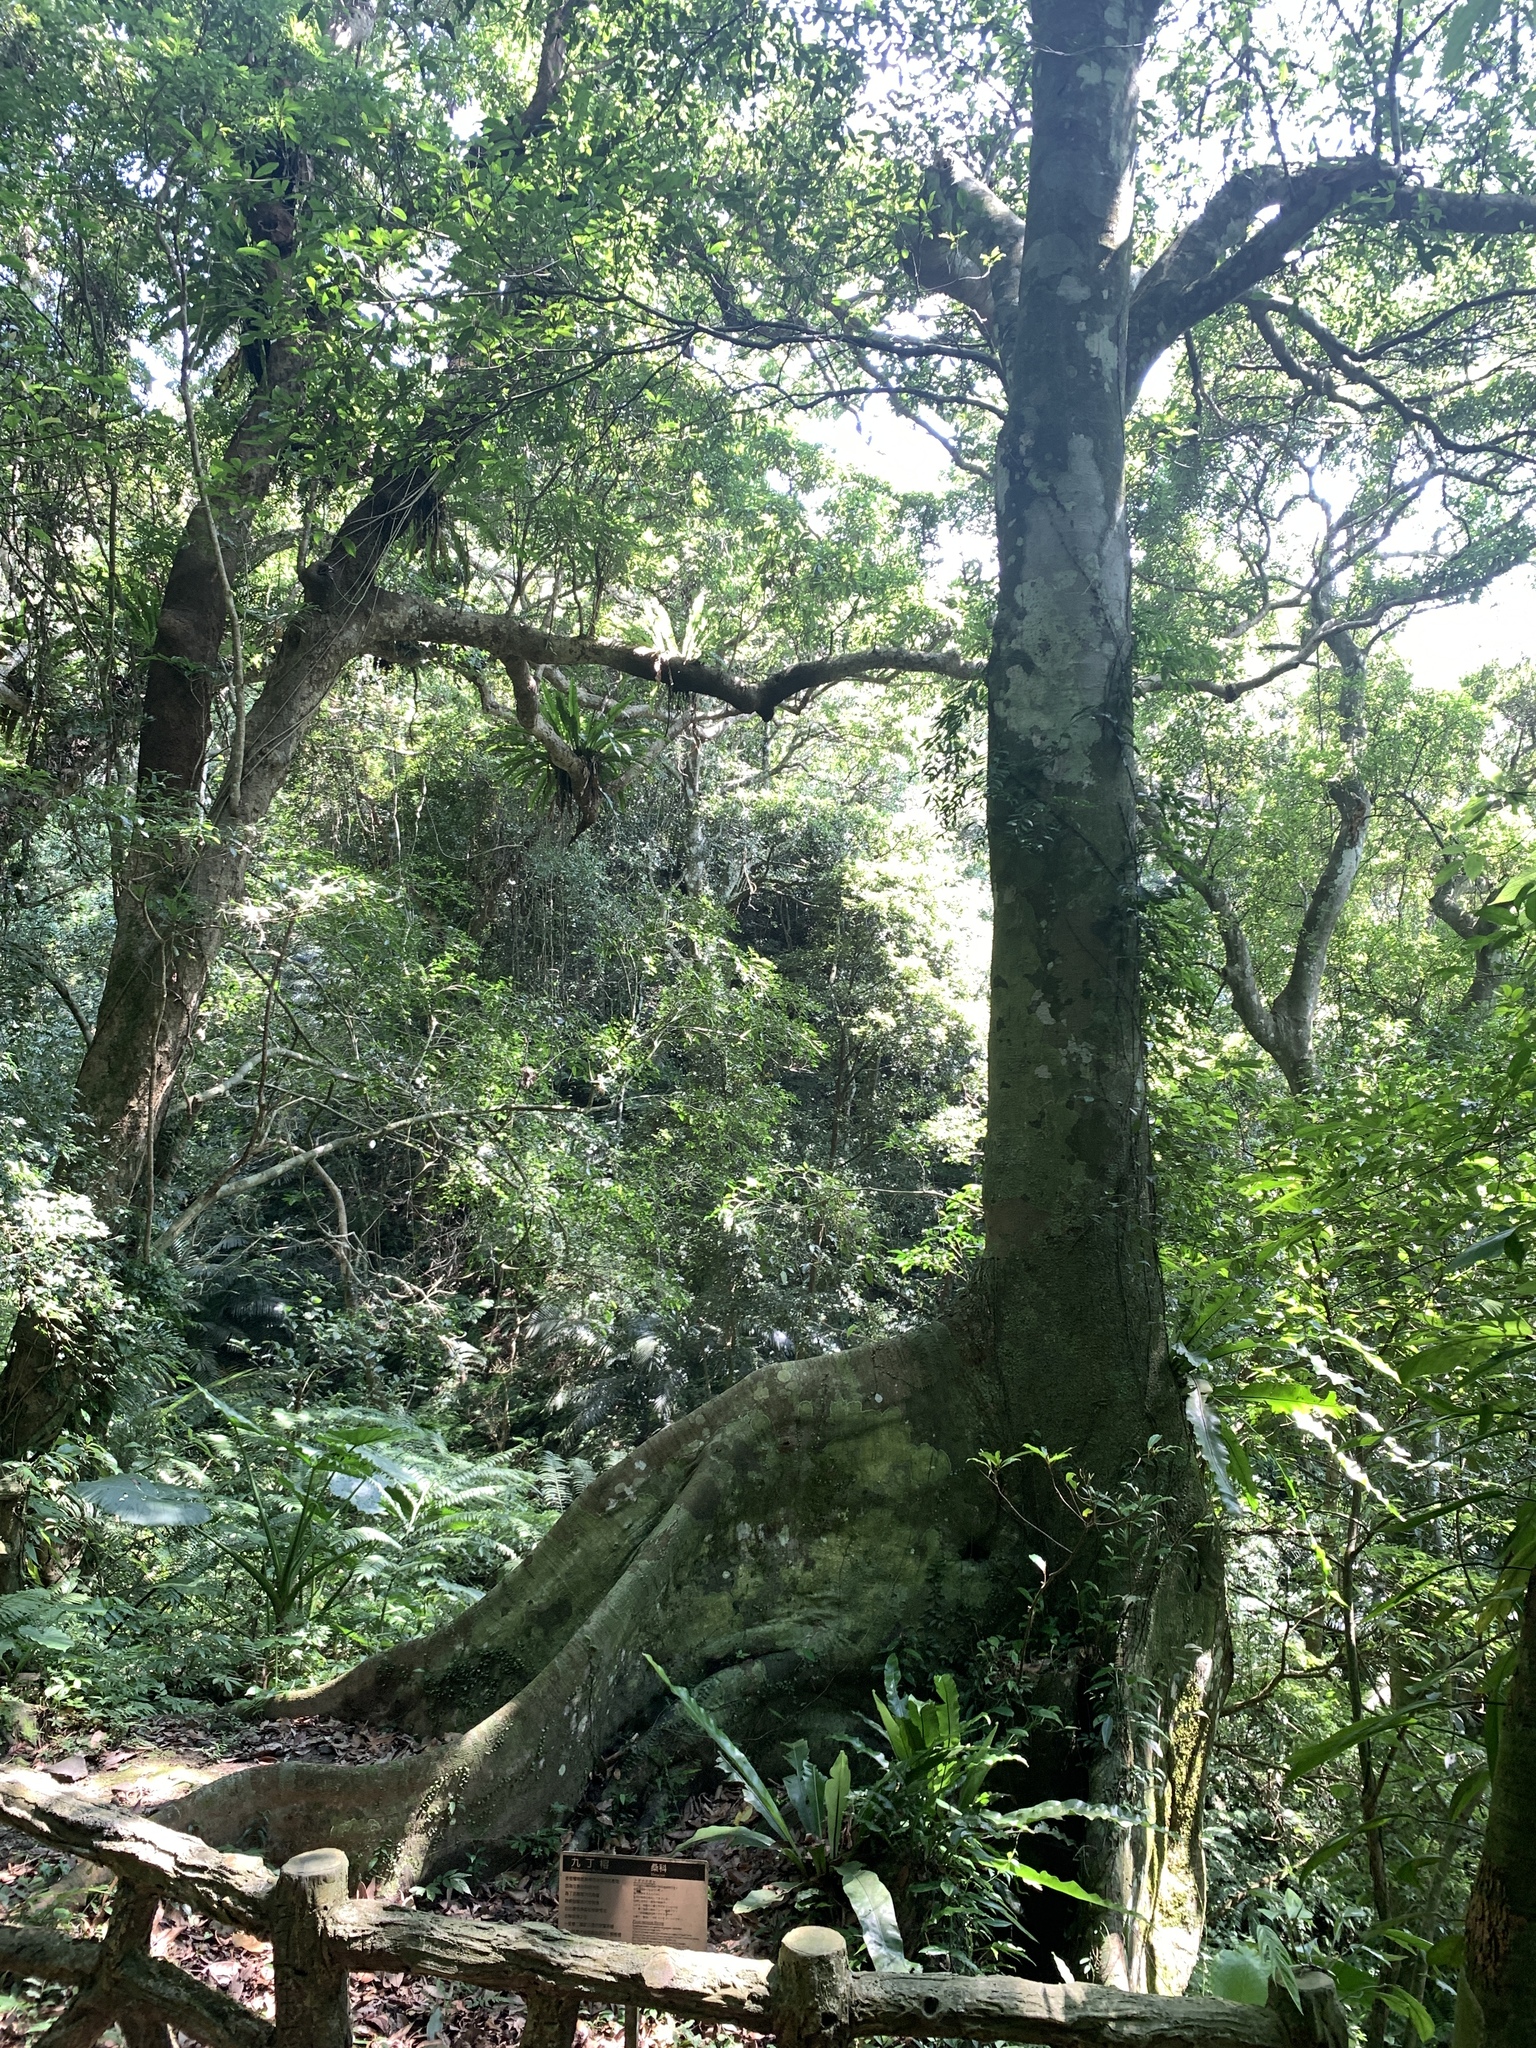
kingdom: Plantae
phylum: Tracheophyta
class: Magnoliopsida
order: Rosales
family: Moraceae
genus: Ficus
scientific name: Ficus nervosa
